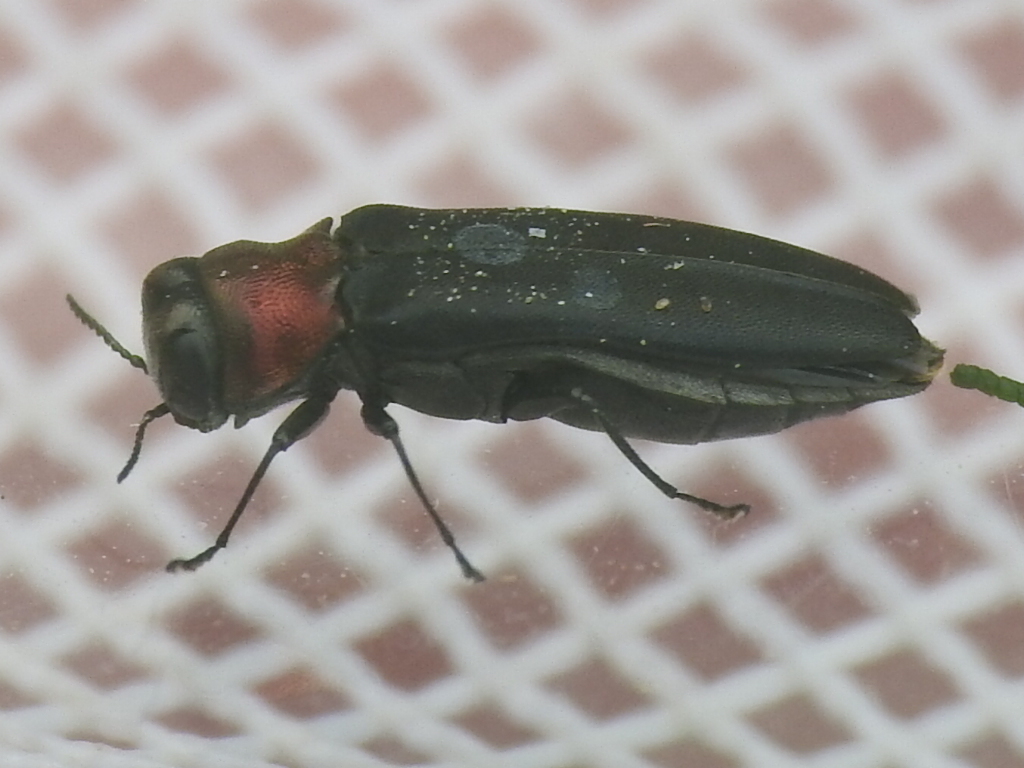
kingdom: Animalia
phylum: Arthropoda
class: Insecta
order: Coleoptera
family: Buprestidae
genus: Agrilus
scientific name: Agrilus ruficollis
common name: Red-necked cane borer beetle
